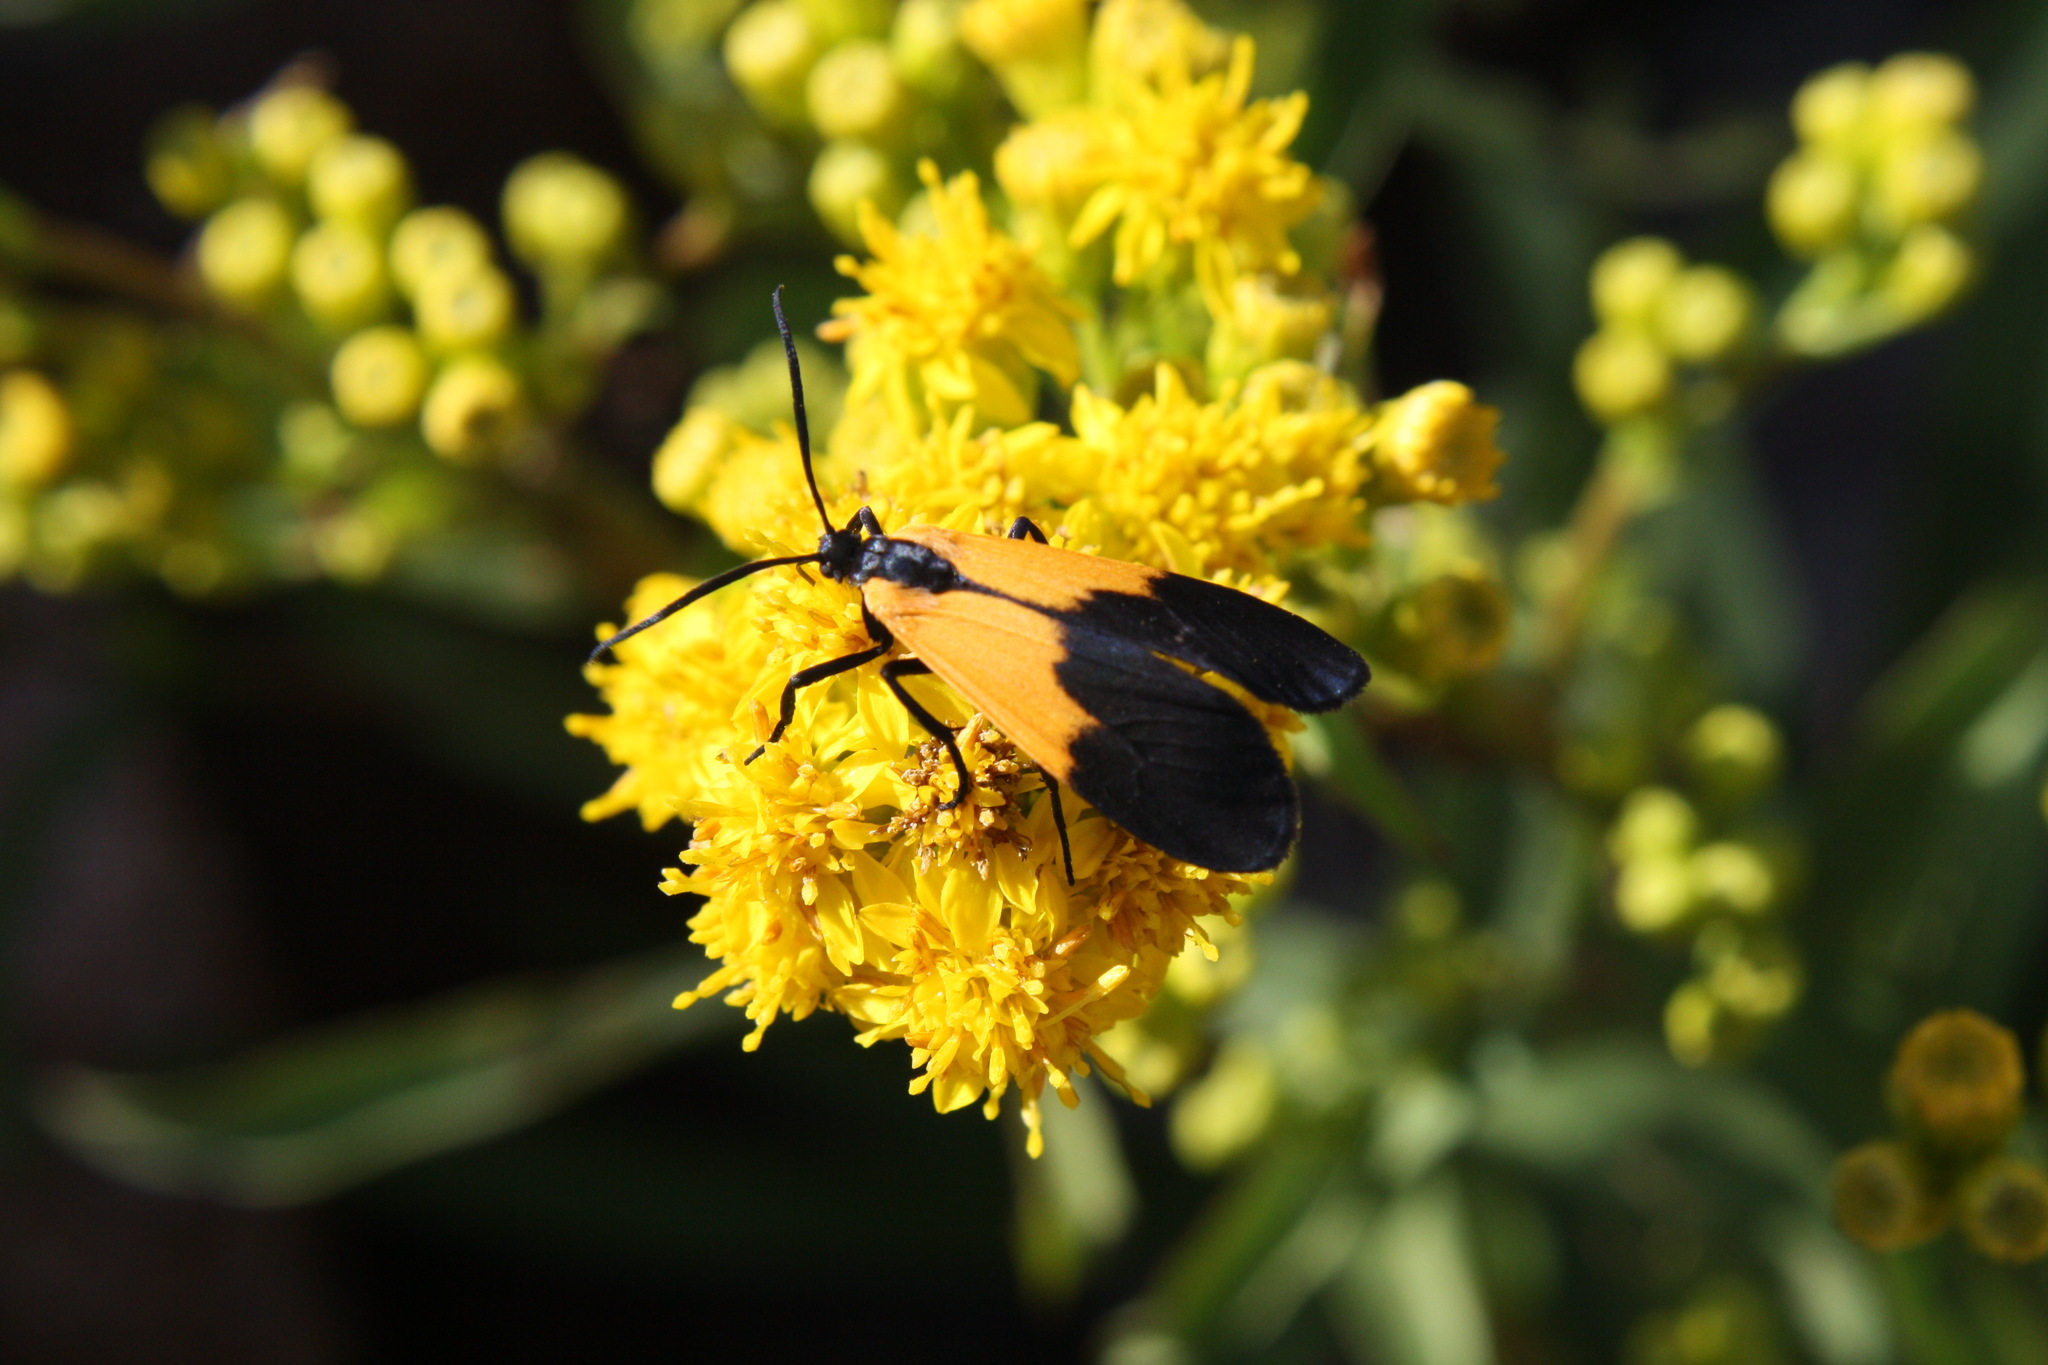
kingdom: Animalia
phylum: Arthropoda
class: Insecta
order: Lepidoptera
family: Erebidae
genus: Lycomorpha
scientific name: Lycomorpha pholus
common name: Black-and-yellow lichen moth
